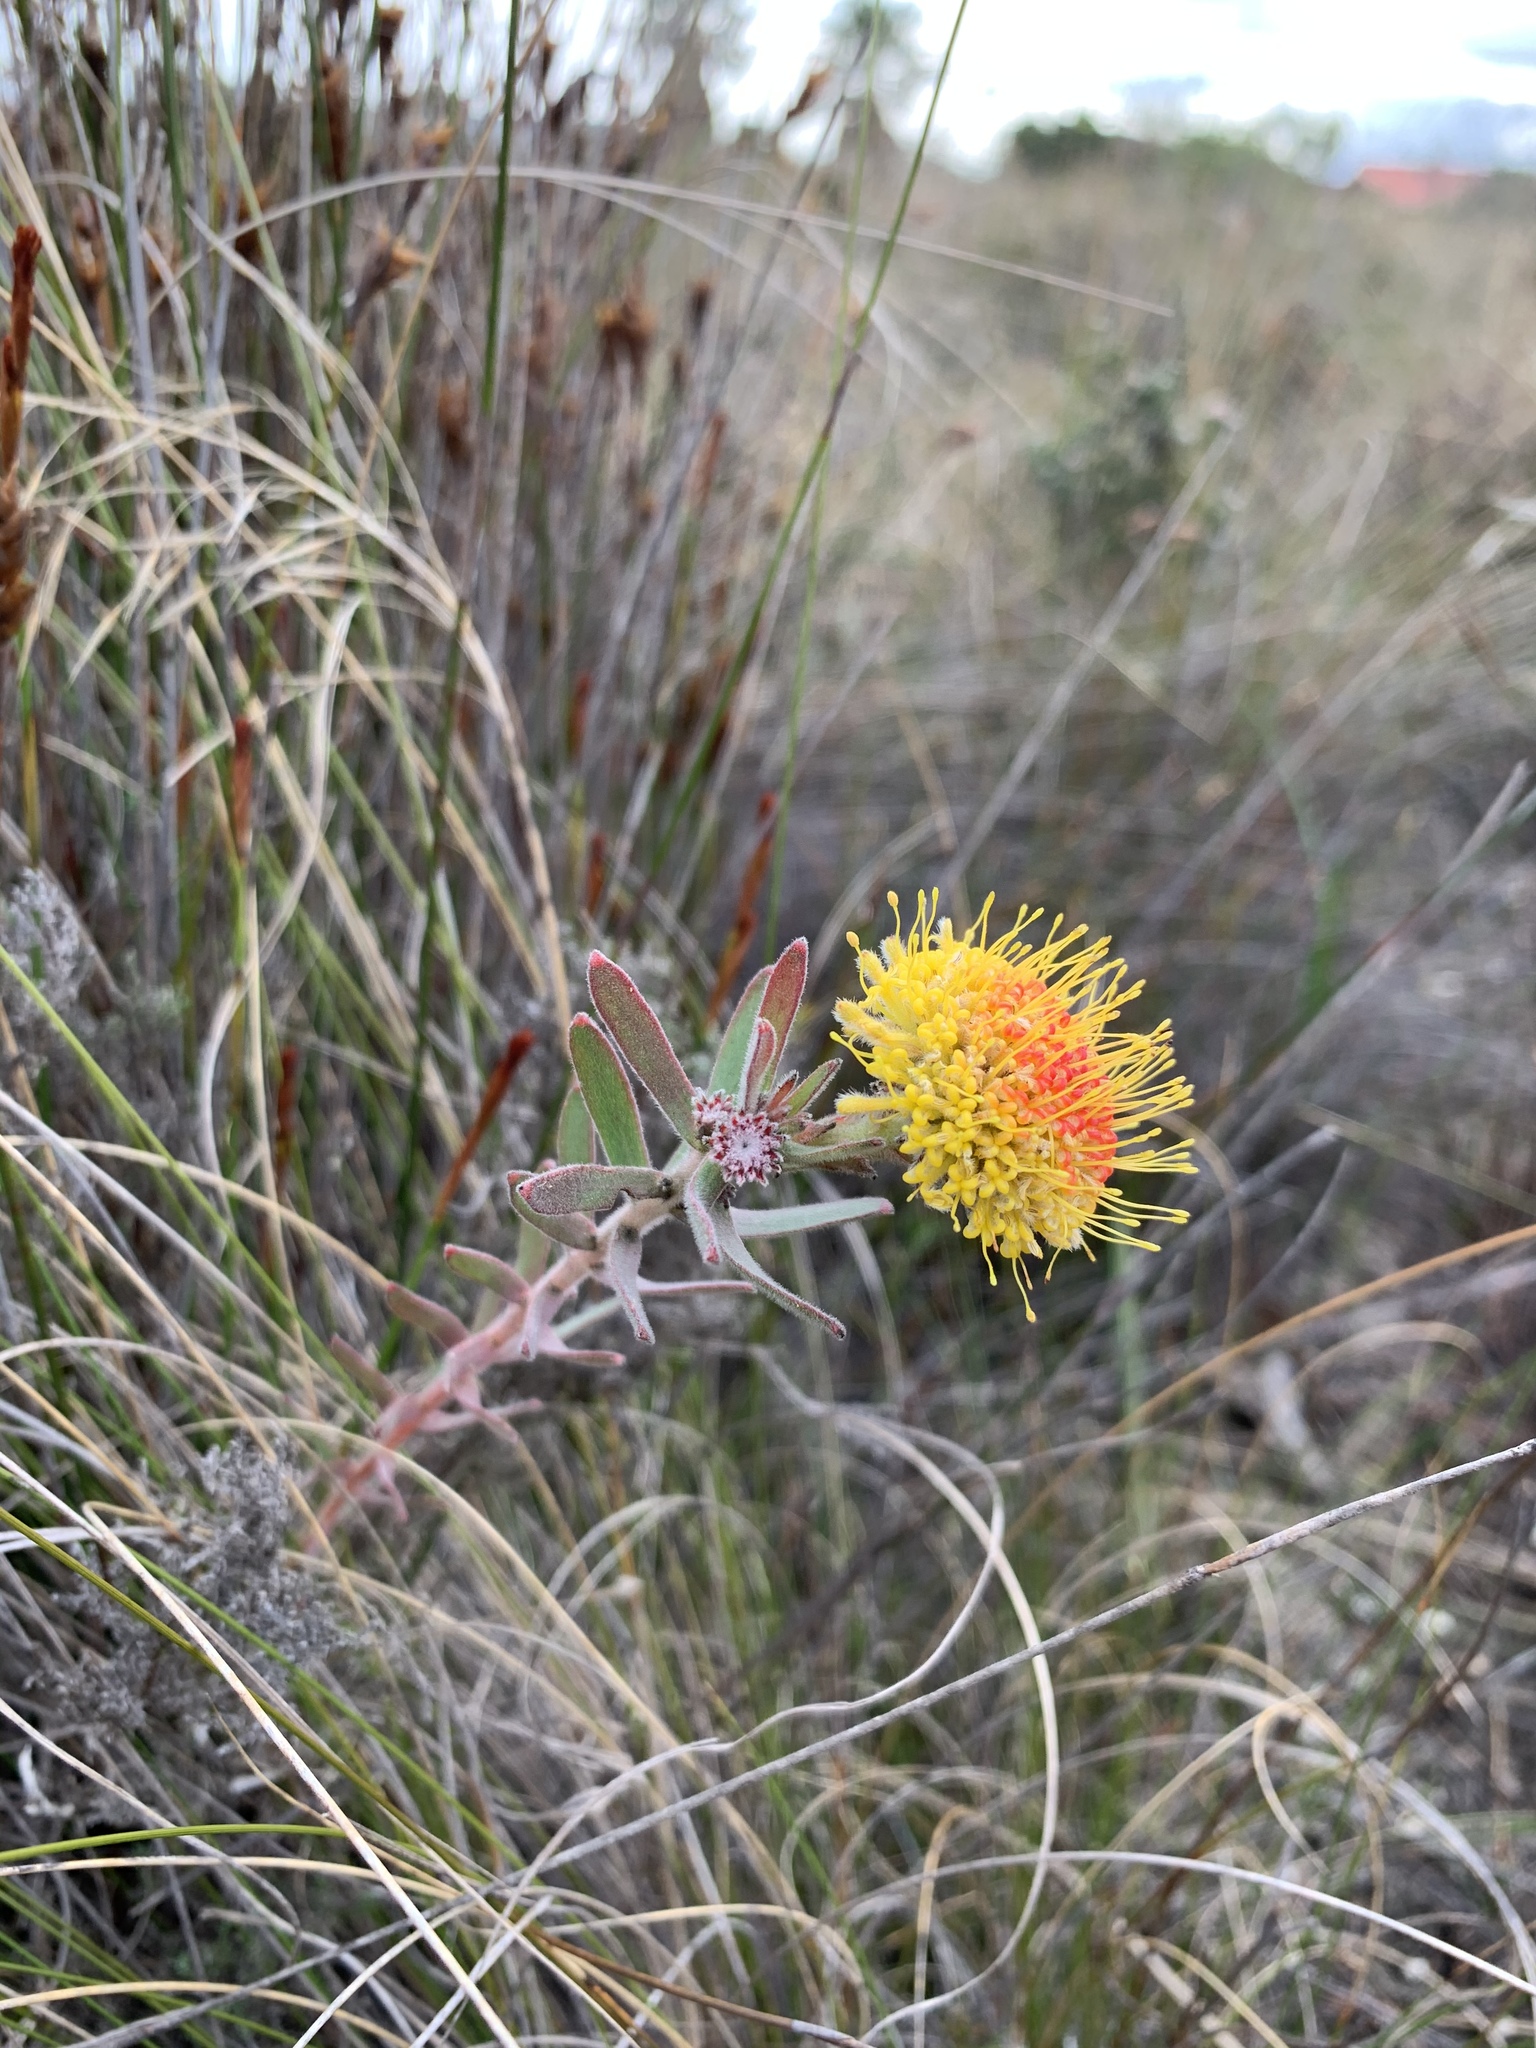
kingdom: Plantae
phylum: Tracheophyta
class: Magnoliopsida
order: Proteales
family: Proteaceae
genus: Leucospermum
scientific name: Leucospermum prostratum
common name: Yellow-trailing pincushion
